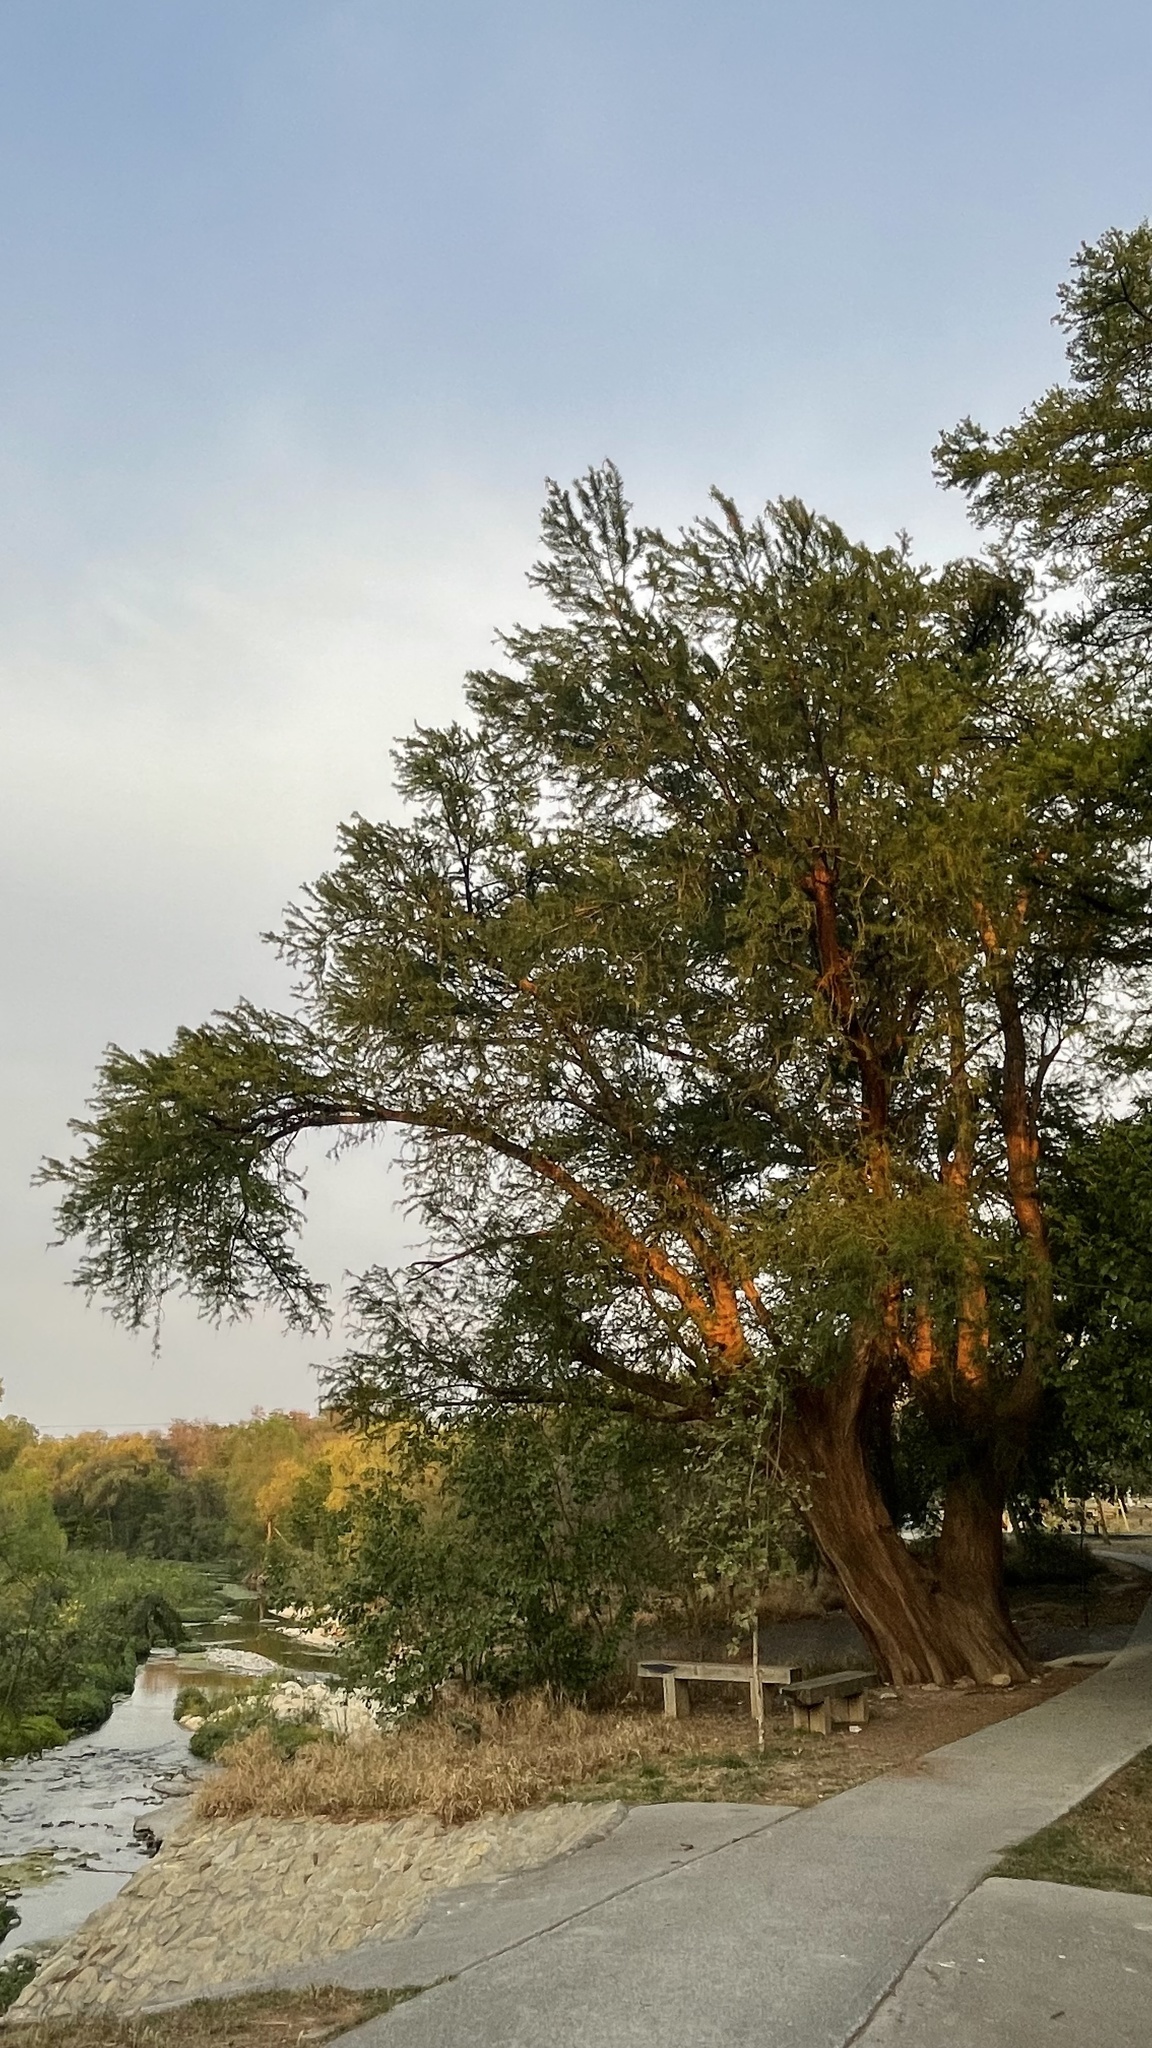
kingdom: Plantae
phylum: Tracheophyta
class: Pinopsida
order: Pinales
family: Cupressaceae
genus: Taxodium
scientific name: Taxodium mucronatum
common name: Montezume bald cypress
